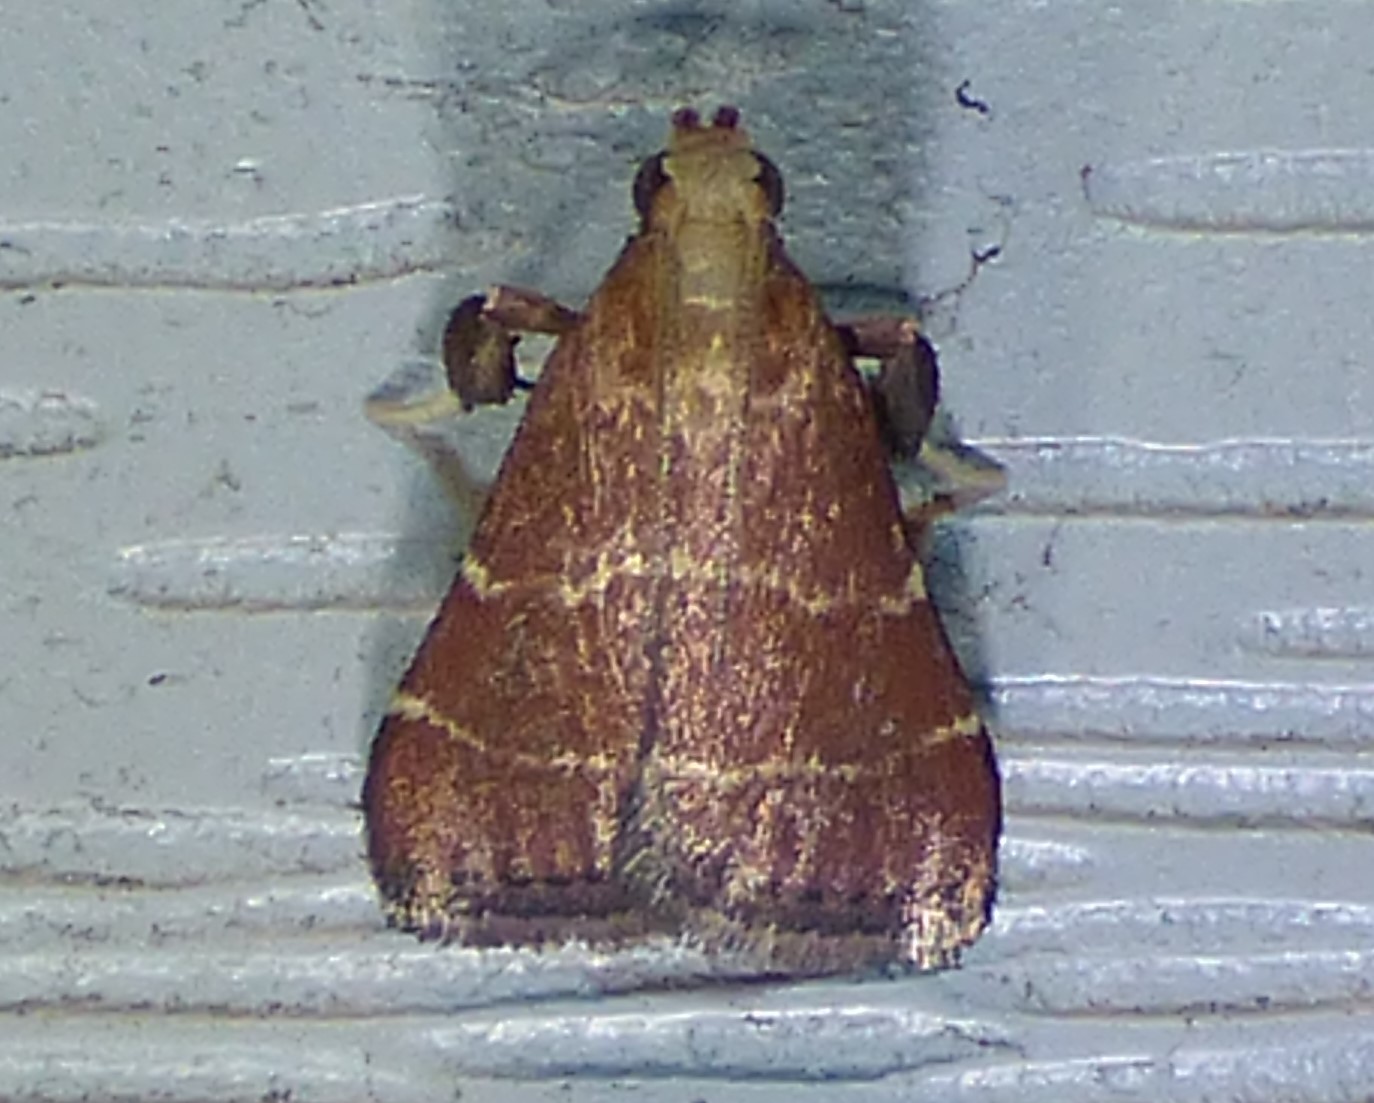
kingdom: Animalia
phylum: Arthropoda
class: Insecta
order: Lepidoptera
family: Pyralidae
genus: Arta
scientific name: Arta statalis
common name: Posturing arta moth
